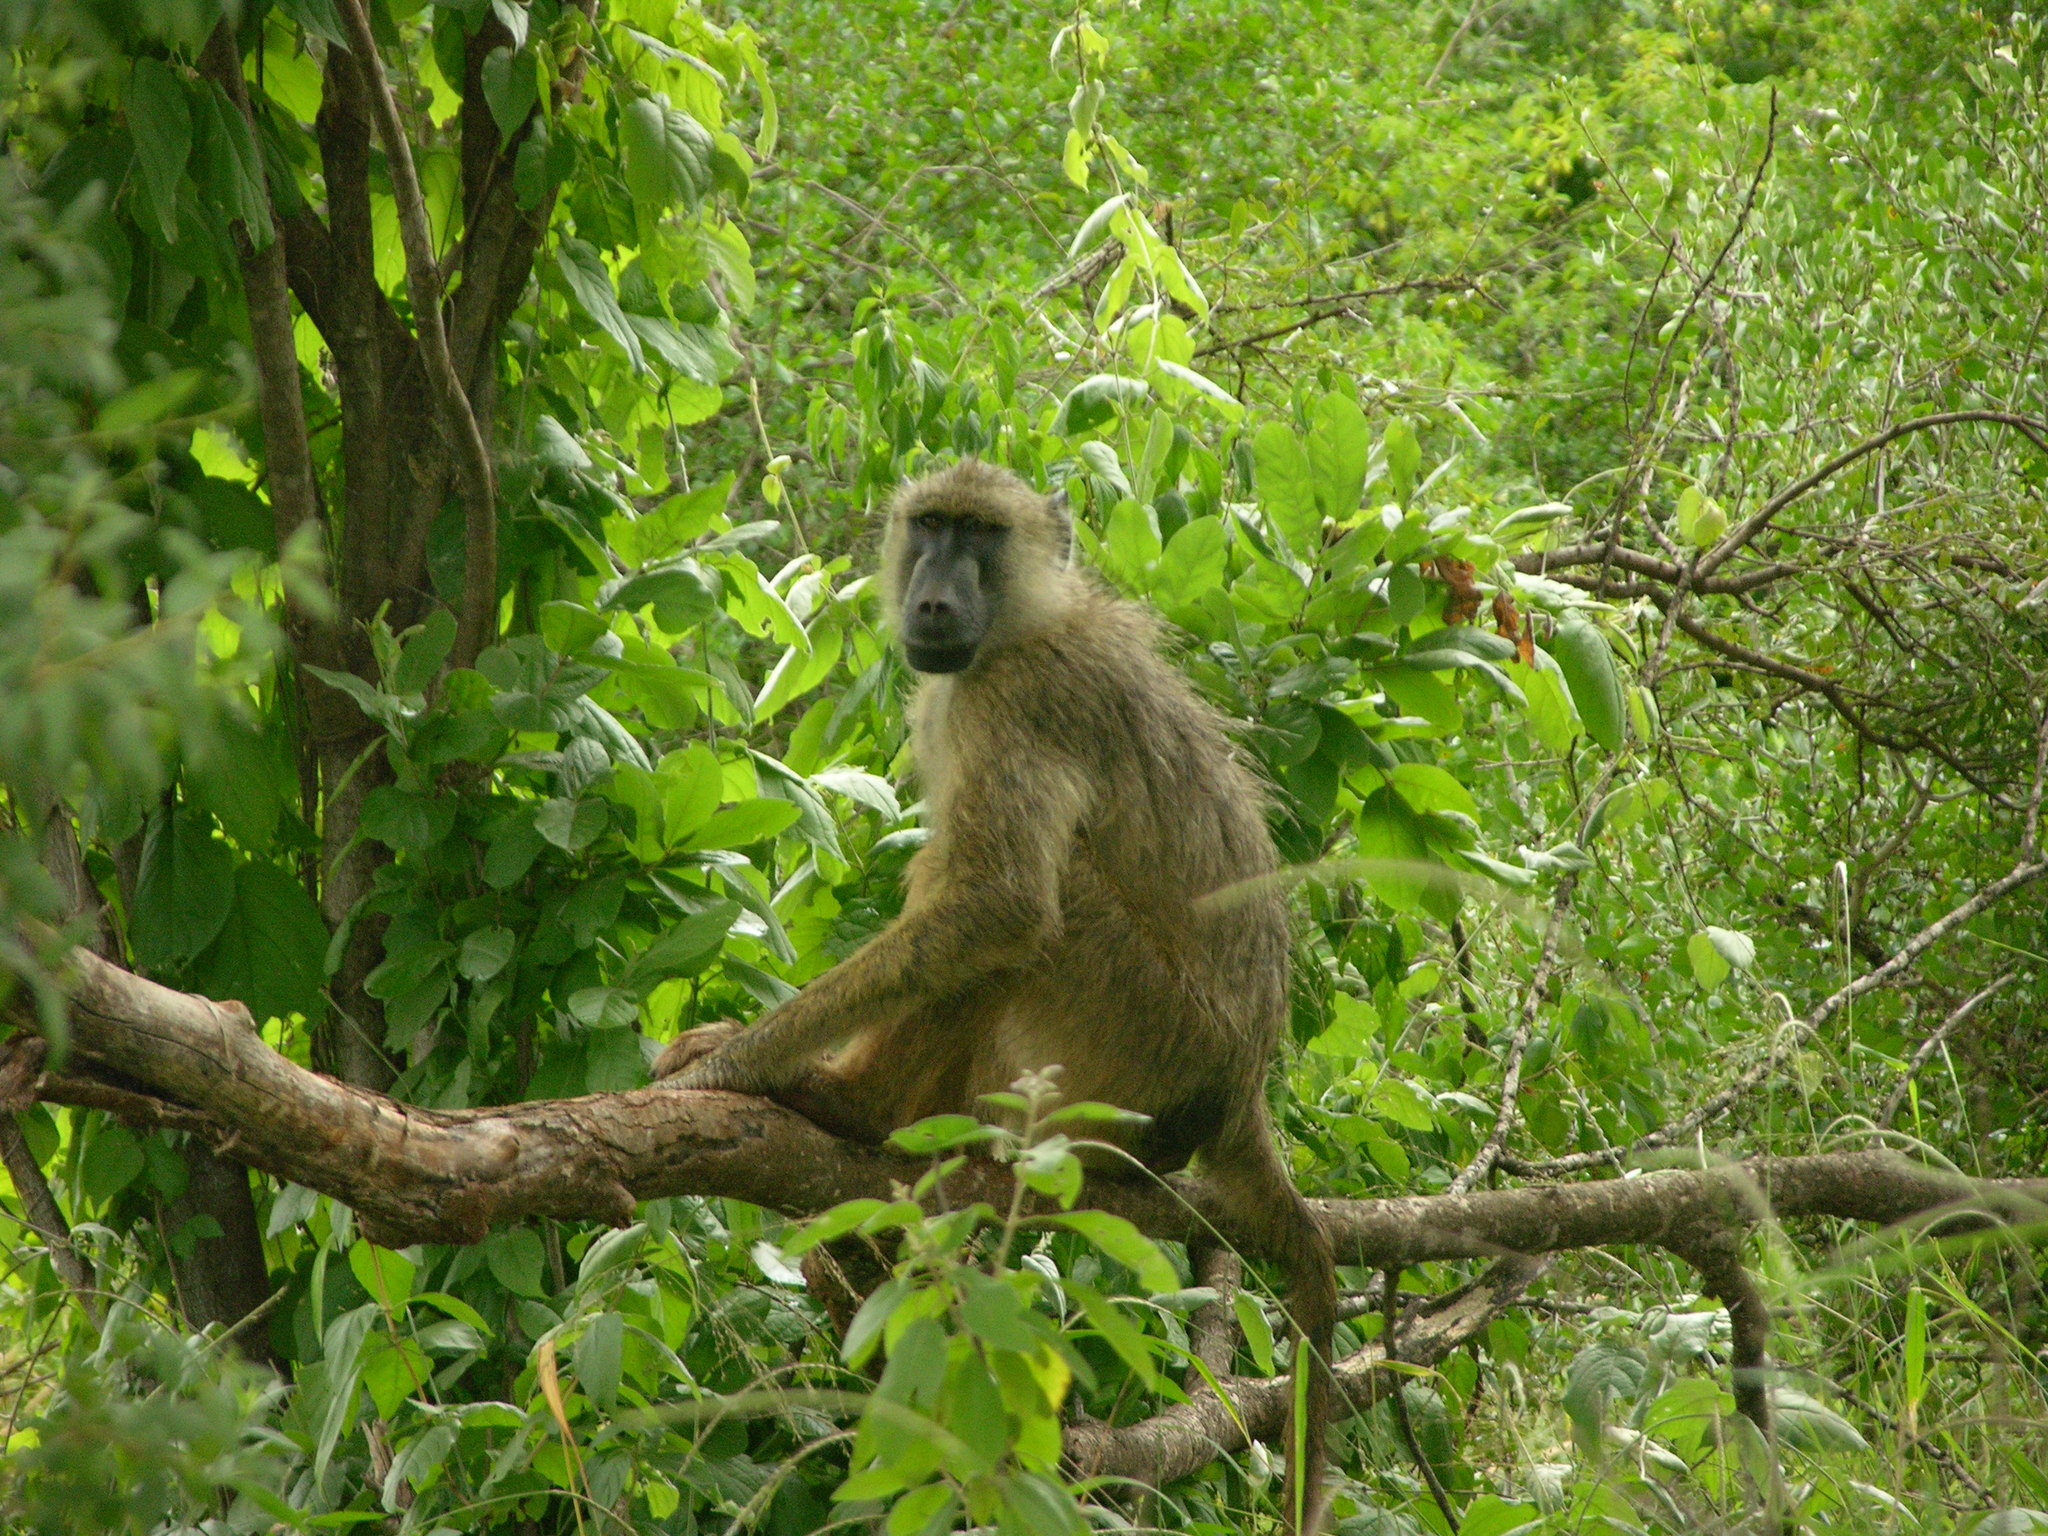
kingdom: Animalia
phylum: Chordata
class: Mammalia
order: Primates
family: Cercopithecidae
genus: Papio
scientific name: Papio cynocephalus
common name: Yellow baboon
